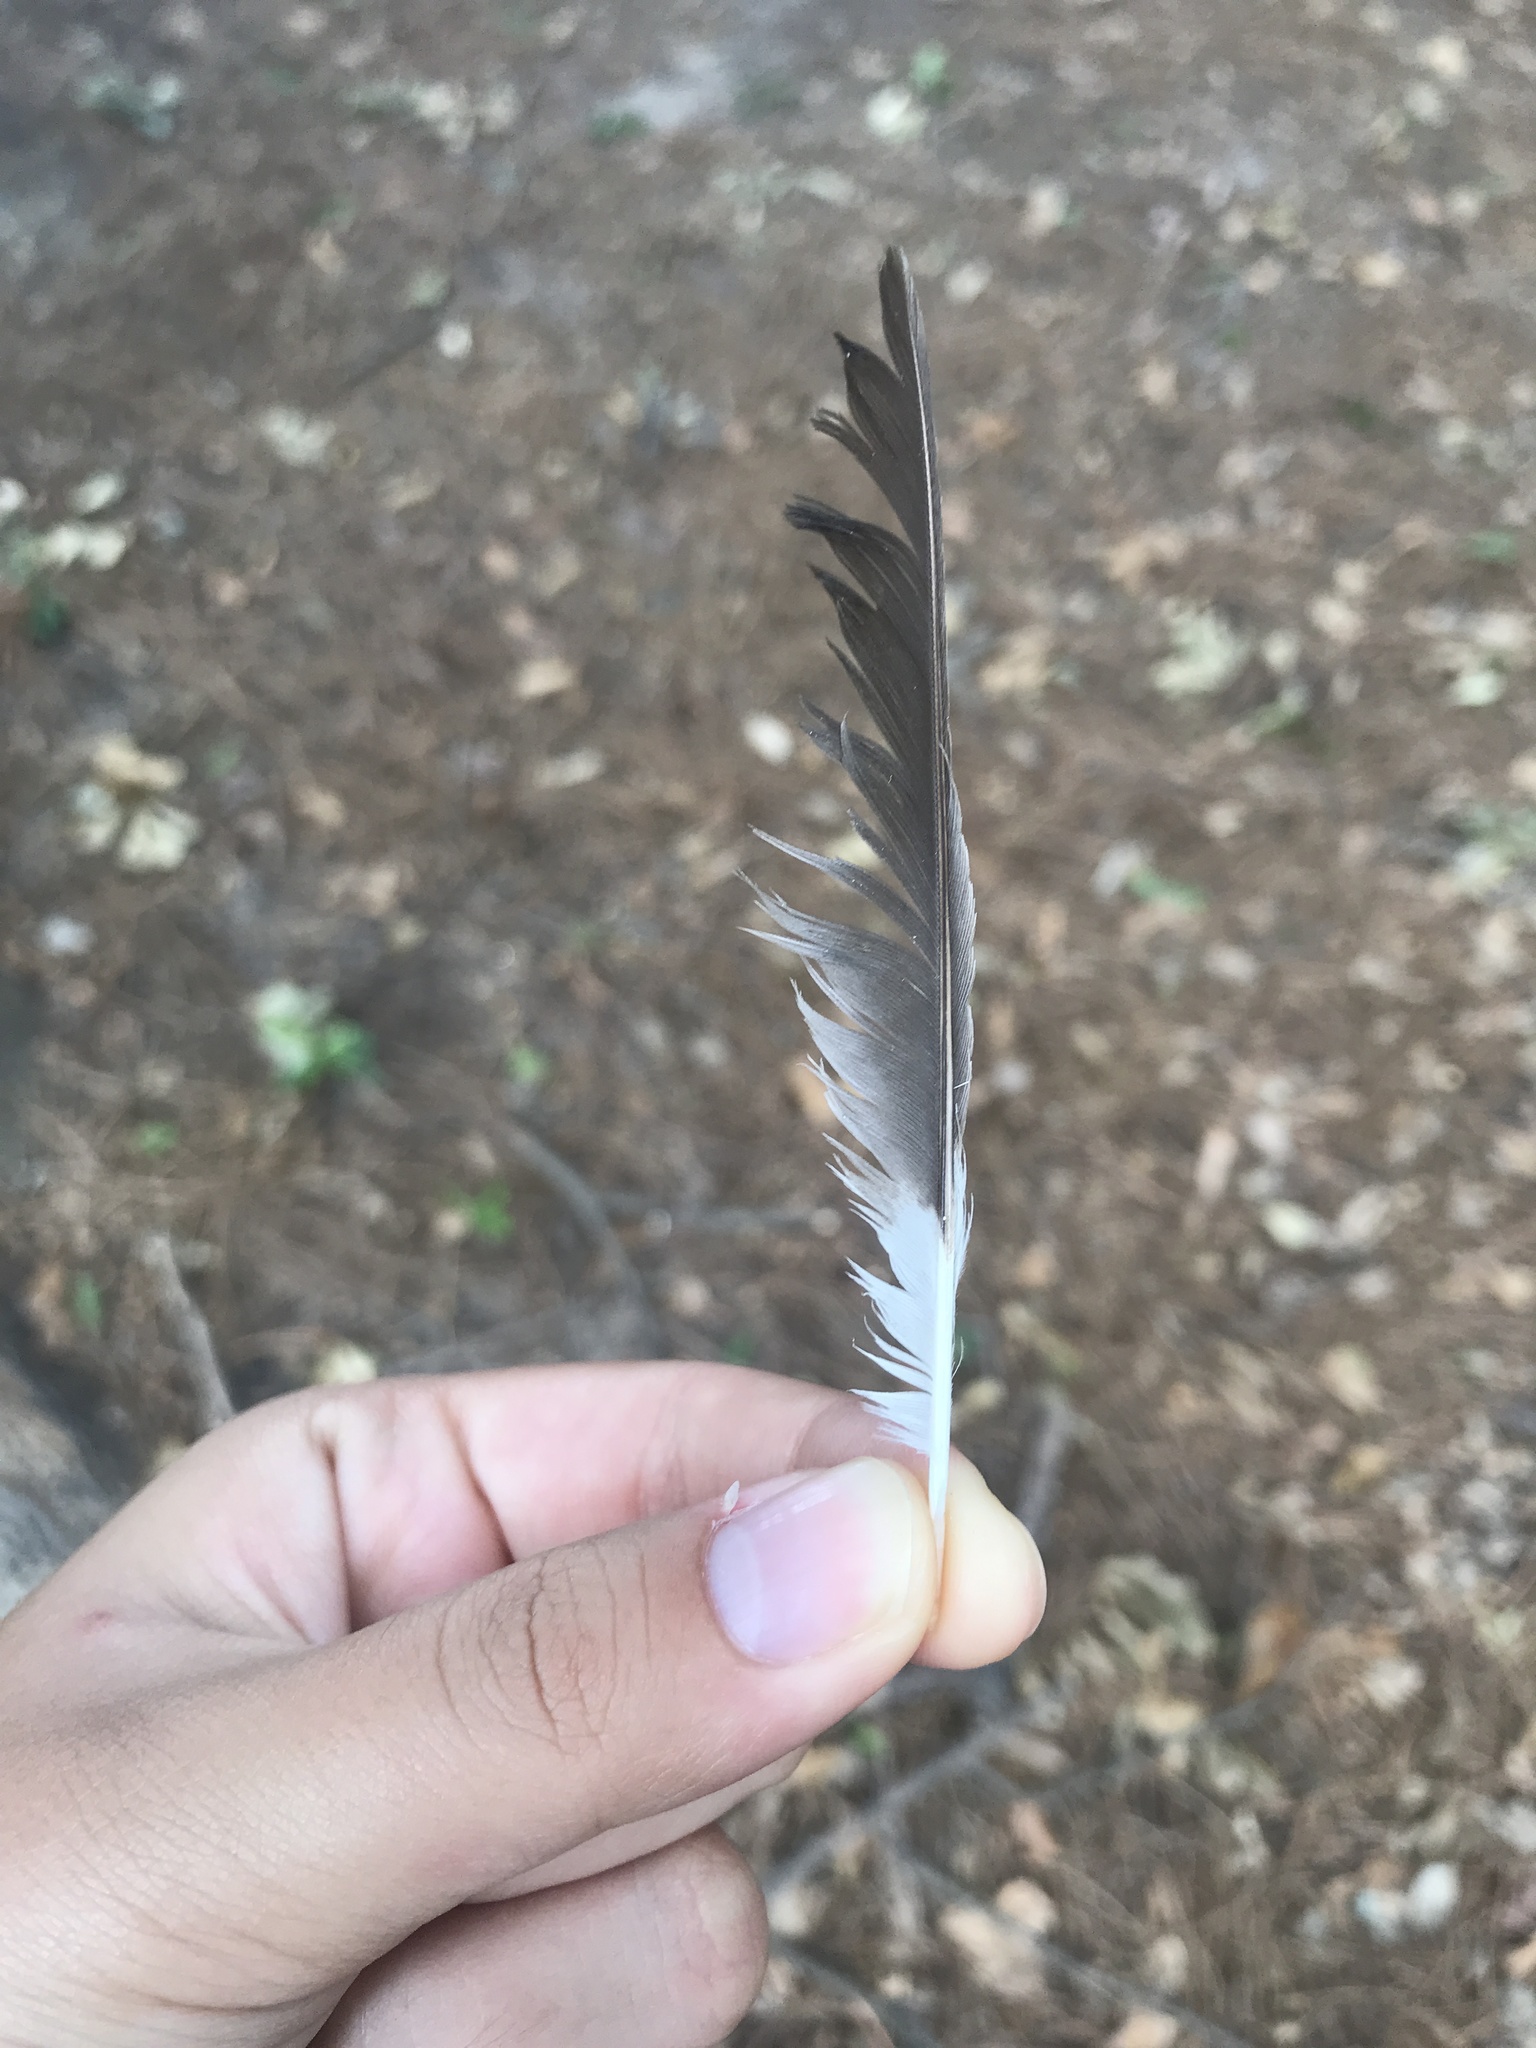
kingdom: Animalia
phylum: Chordata
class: Aves
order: Passeriformes
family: Mimidae
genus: Mimus
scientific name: Mimus polyglottos
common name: Northern mockingbird
